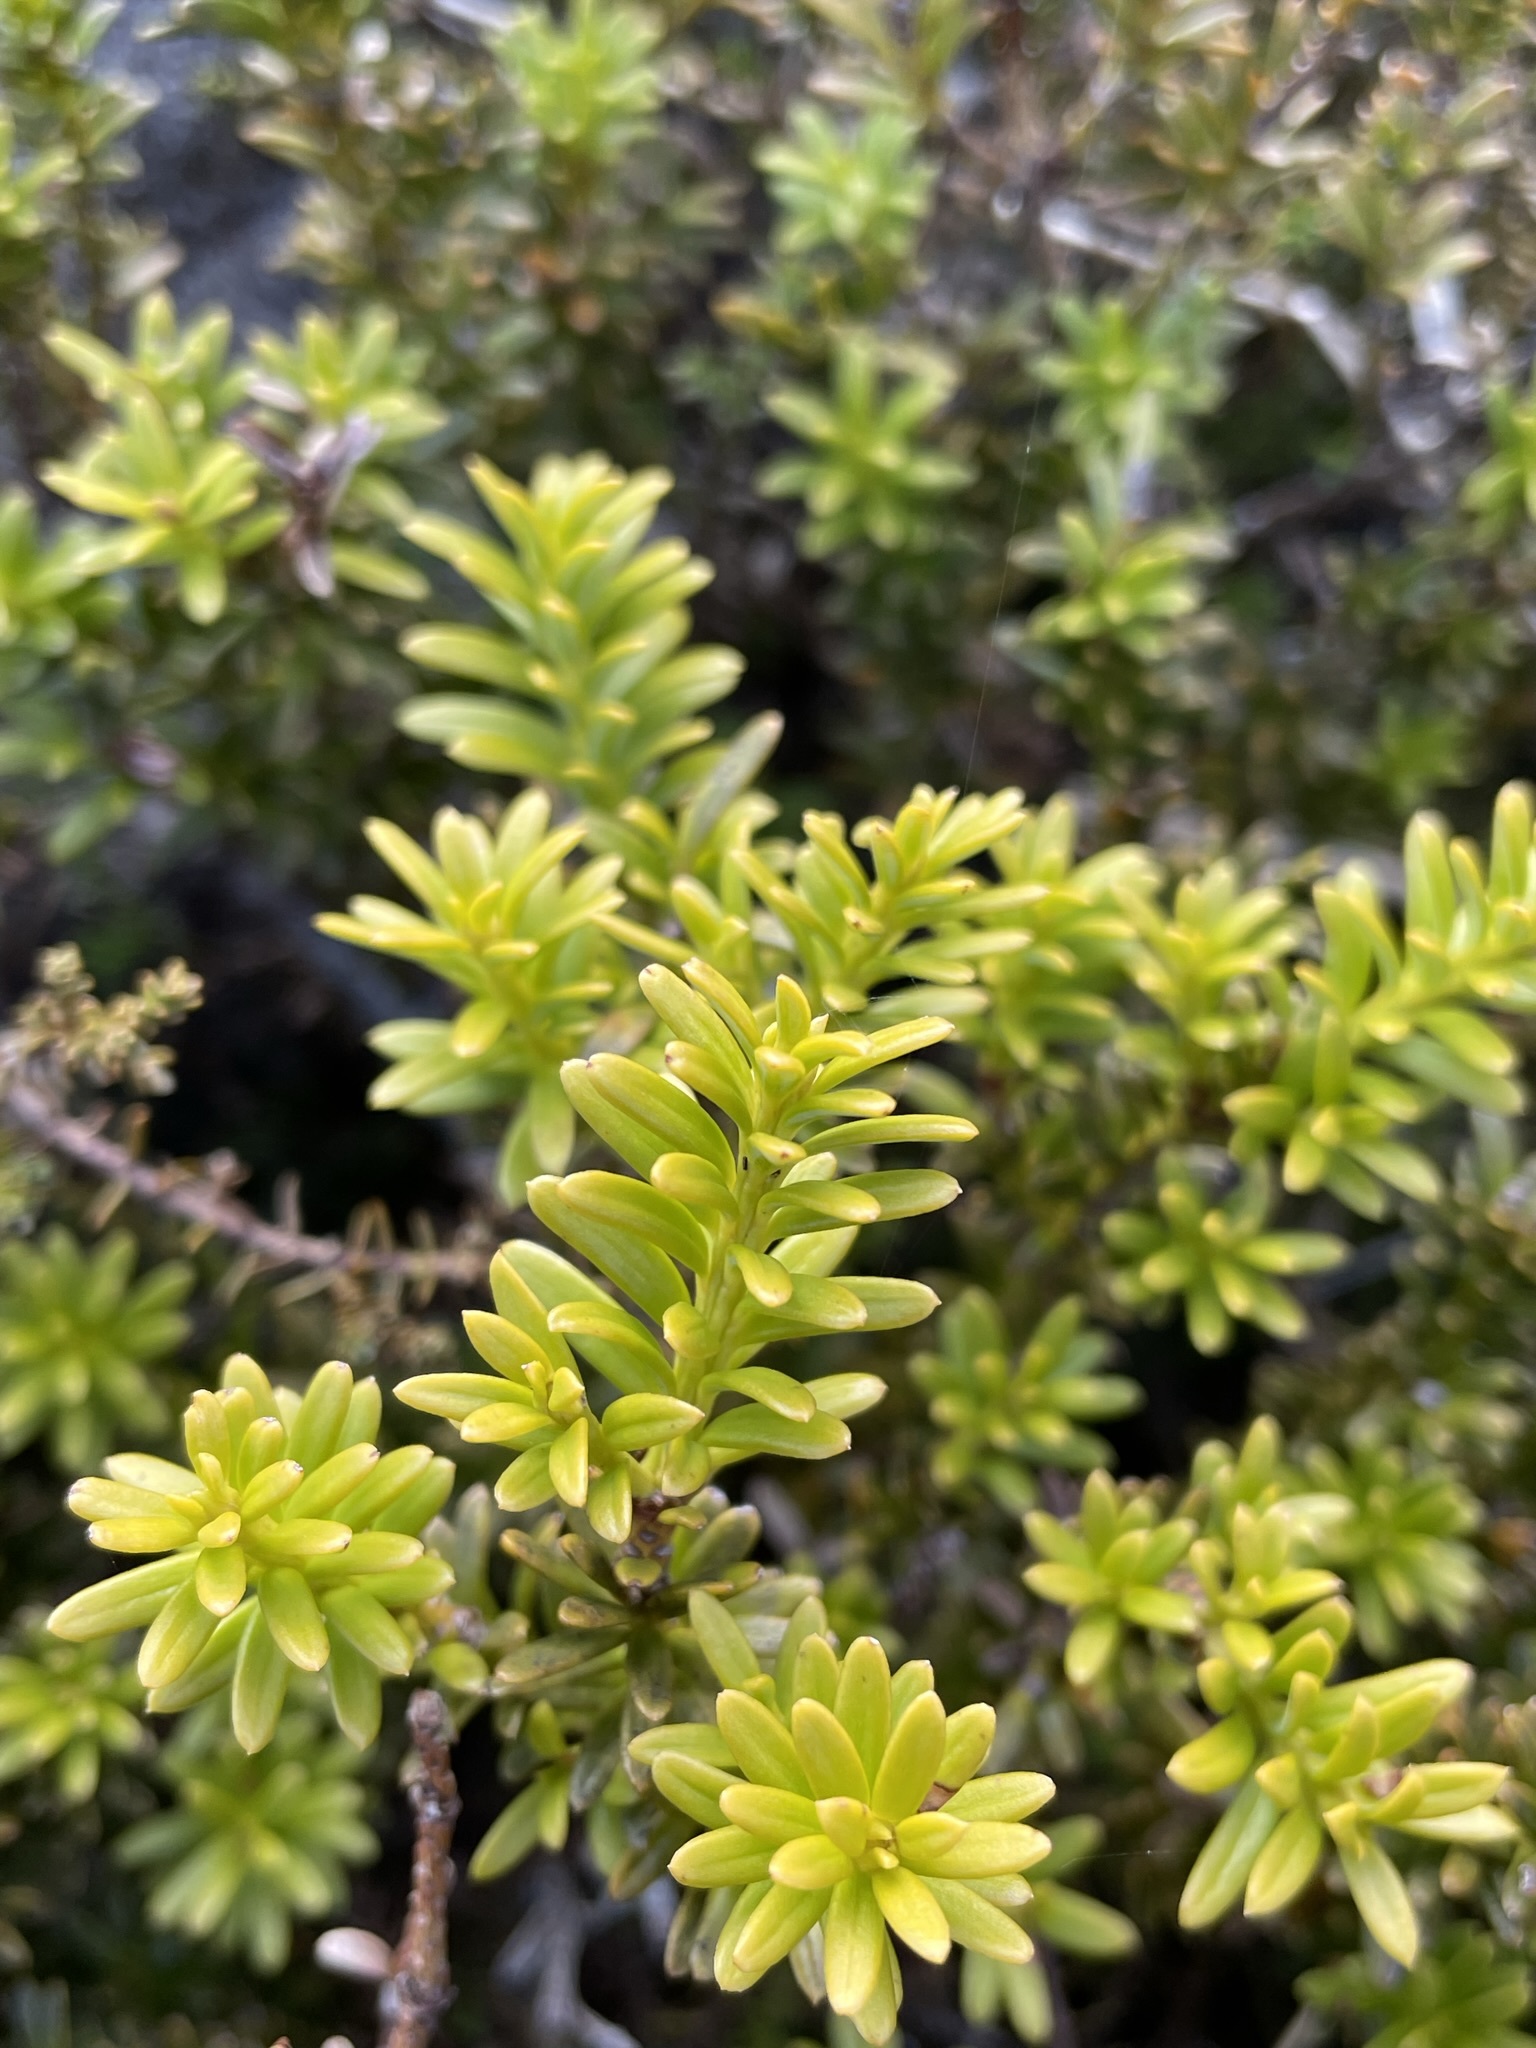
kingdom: Plantae
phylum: Tracheophyta
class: Pinopsida
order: Pinales
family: Podocarpaceae
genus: Podocarpus
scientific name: Podocarpus nivalis
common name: Alpine totara
